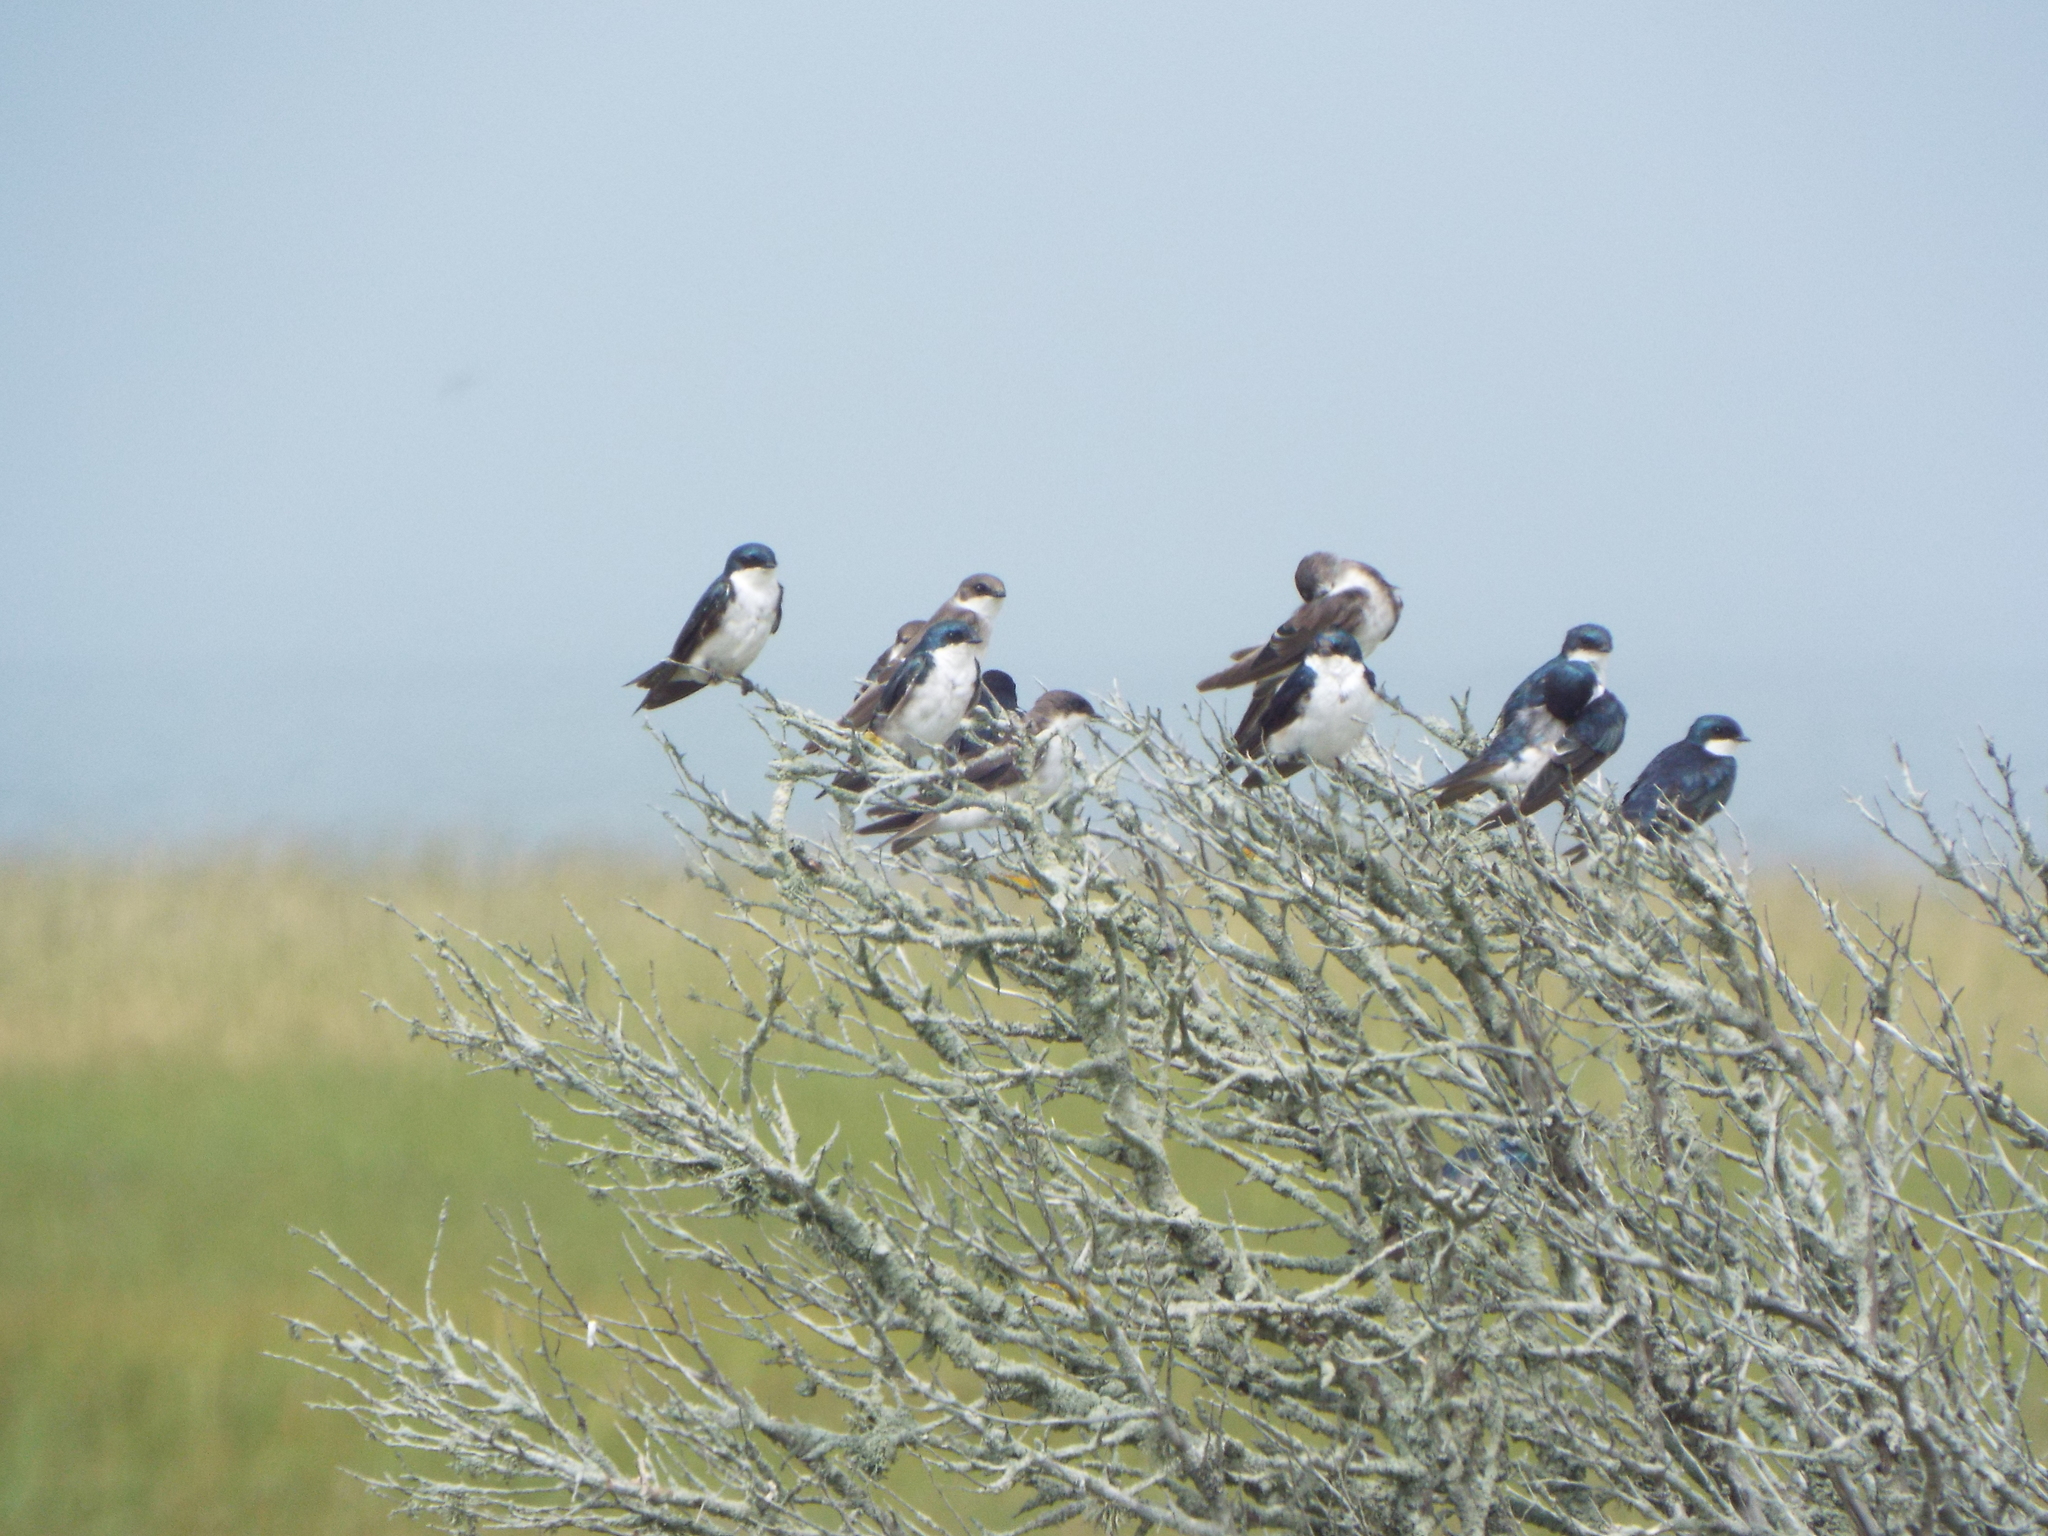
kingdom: Animalia
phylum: Chordata
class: Aves
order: Passeriformes
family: Hirundinidae
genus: Tachycineta
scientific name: Tachycineta bicolor
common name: Tree swallow
